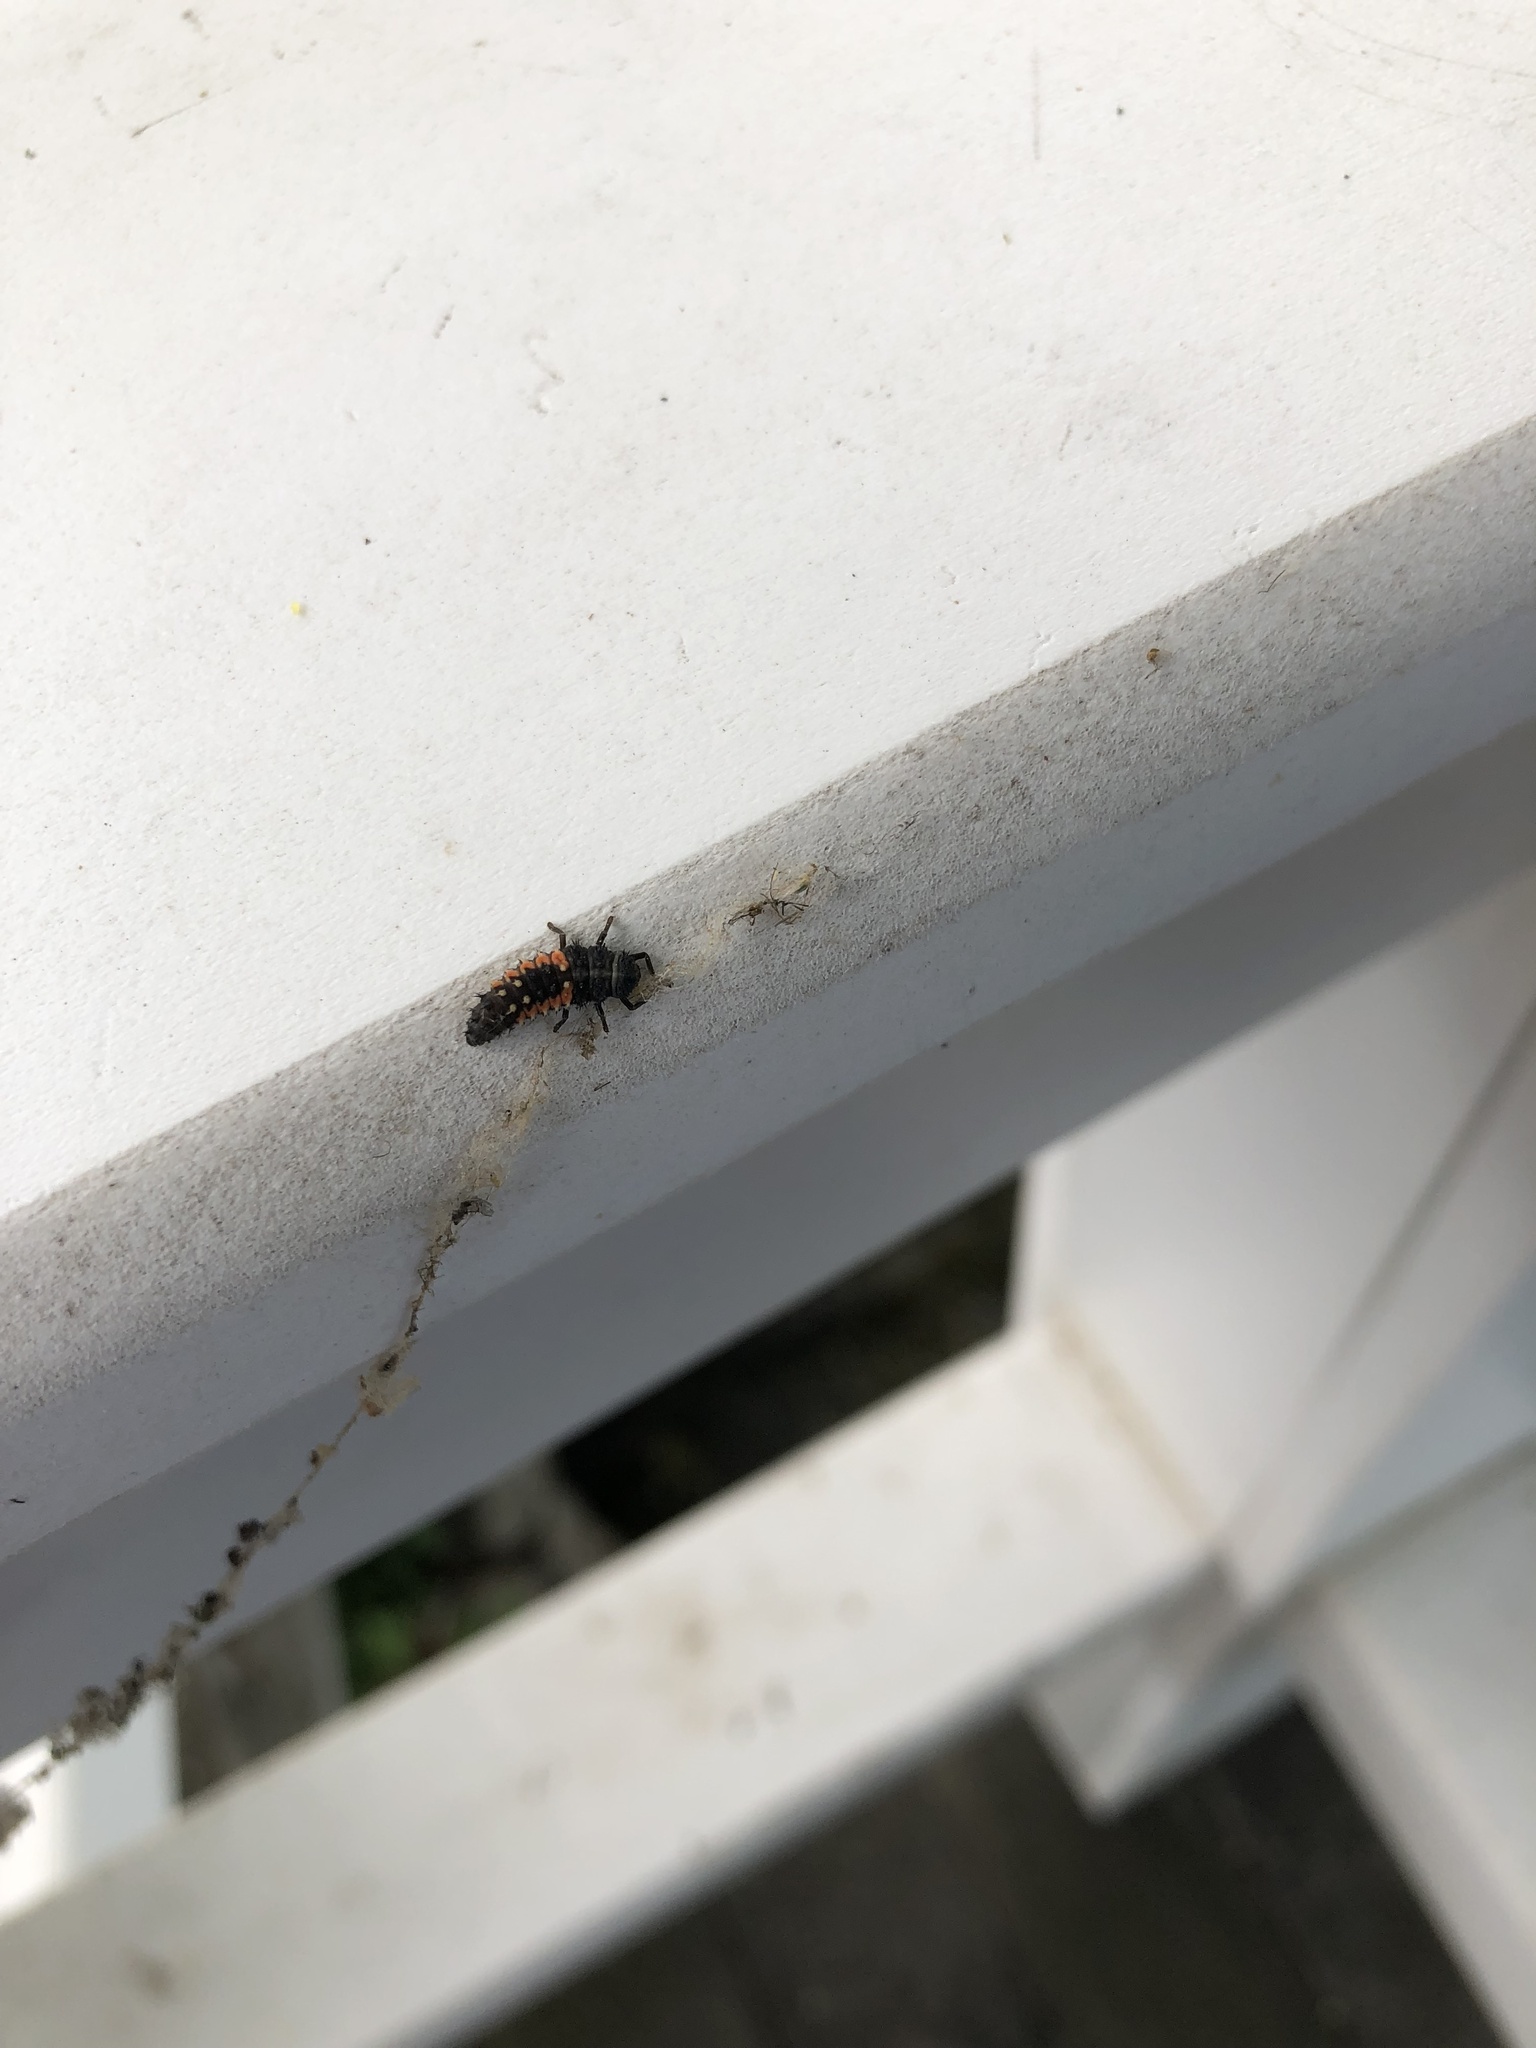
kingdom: Animalia
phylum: Arthropoda
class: Insecta
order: Coleoptera
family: Coccinellidae
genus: Harmonia
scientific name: Harmonia axyridis
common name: Harlequin ladybird
